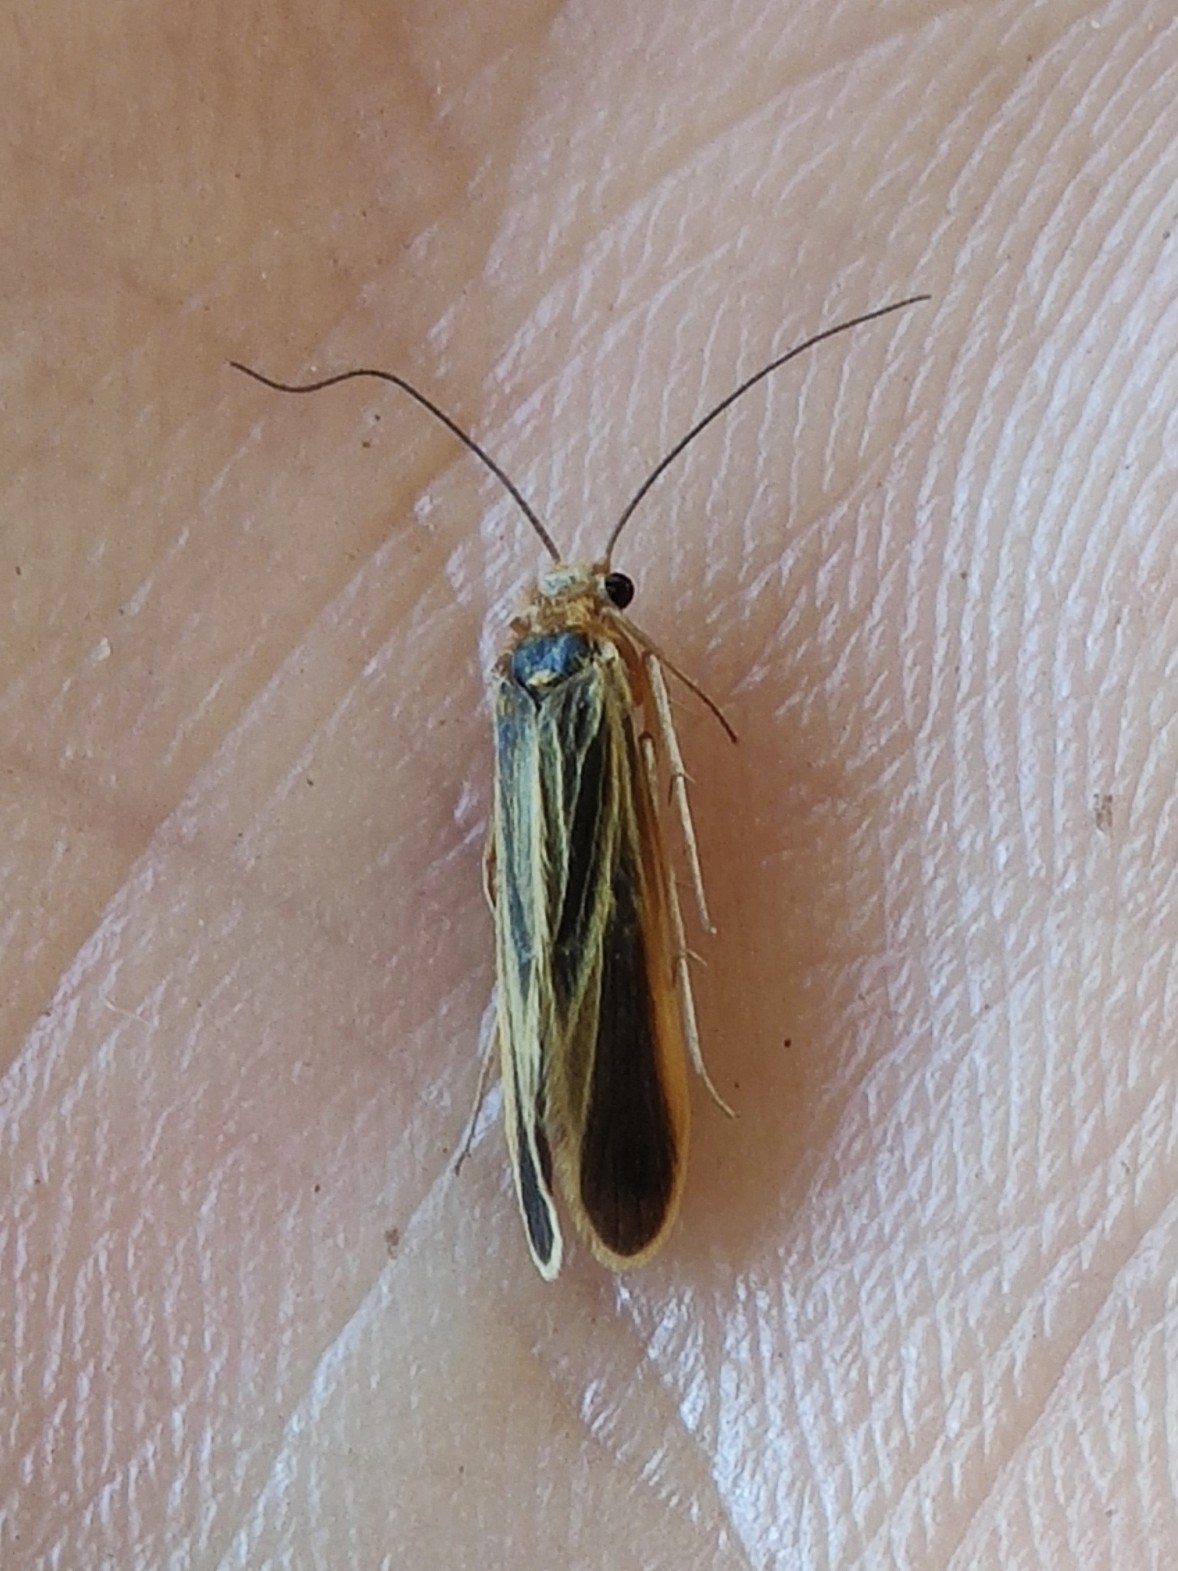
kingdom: Animalia
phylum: Arthropoda
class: Insecta
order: Trichoptera
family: Philopotamidae
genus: Chimarra
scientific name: Chimarra marginata
